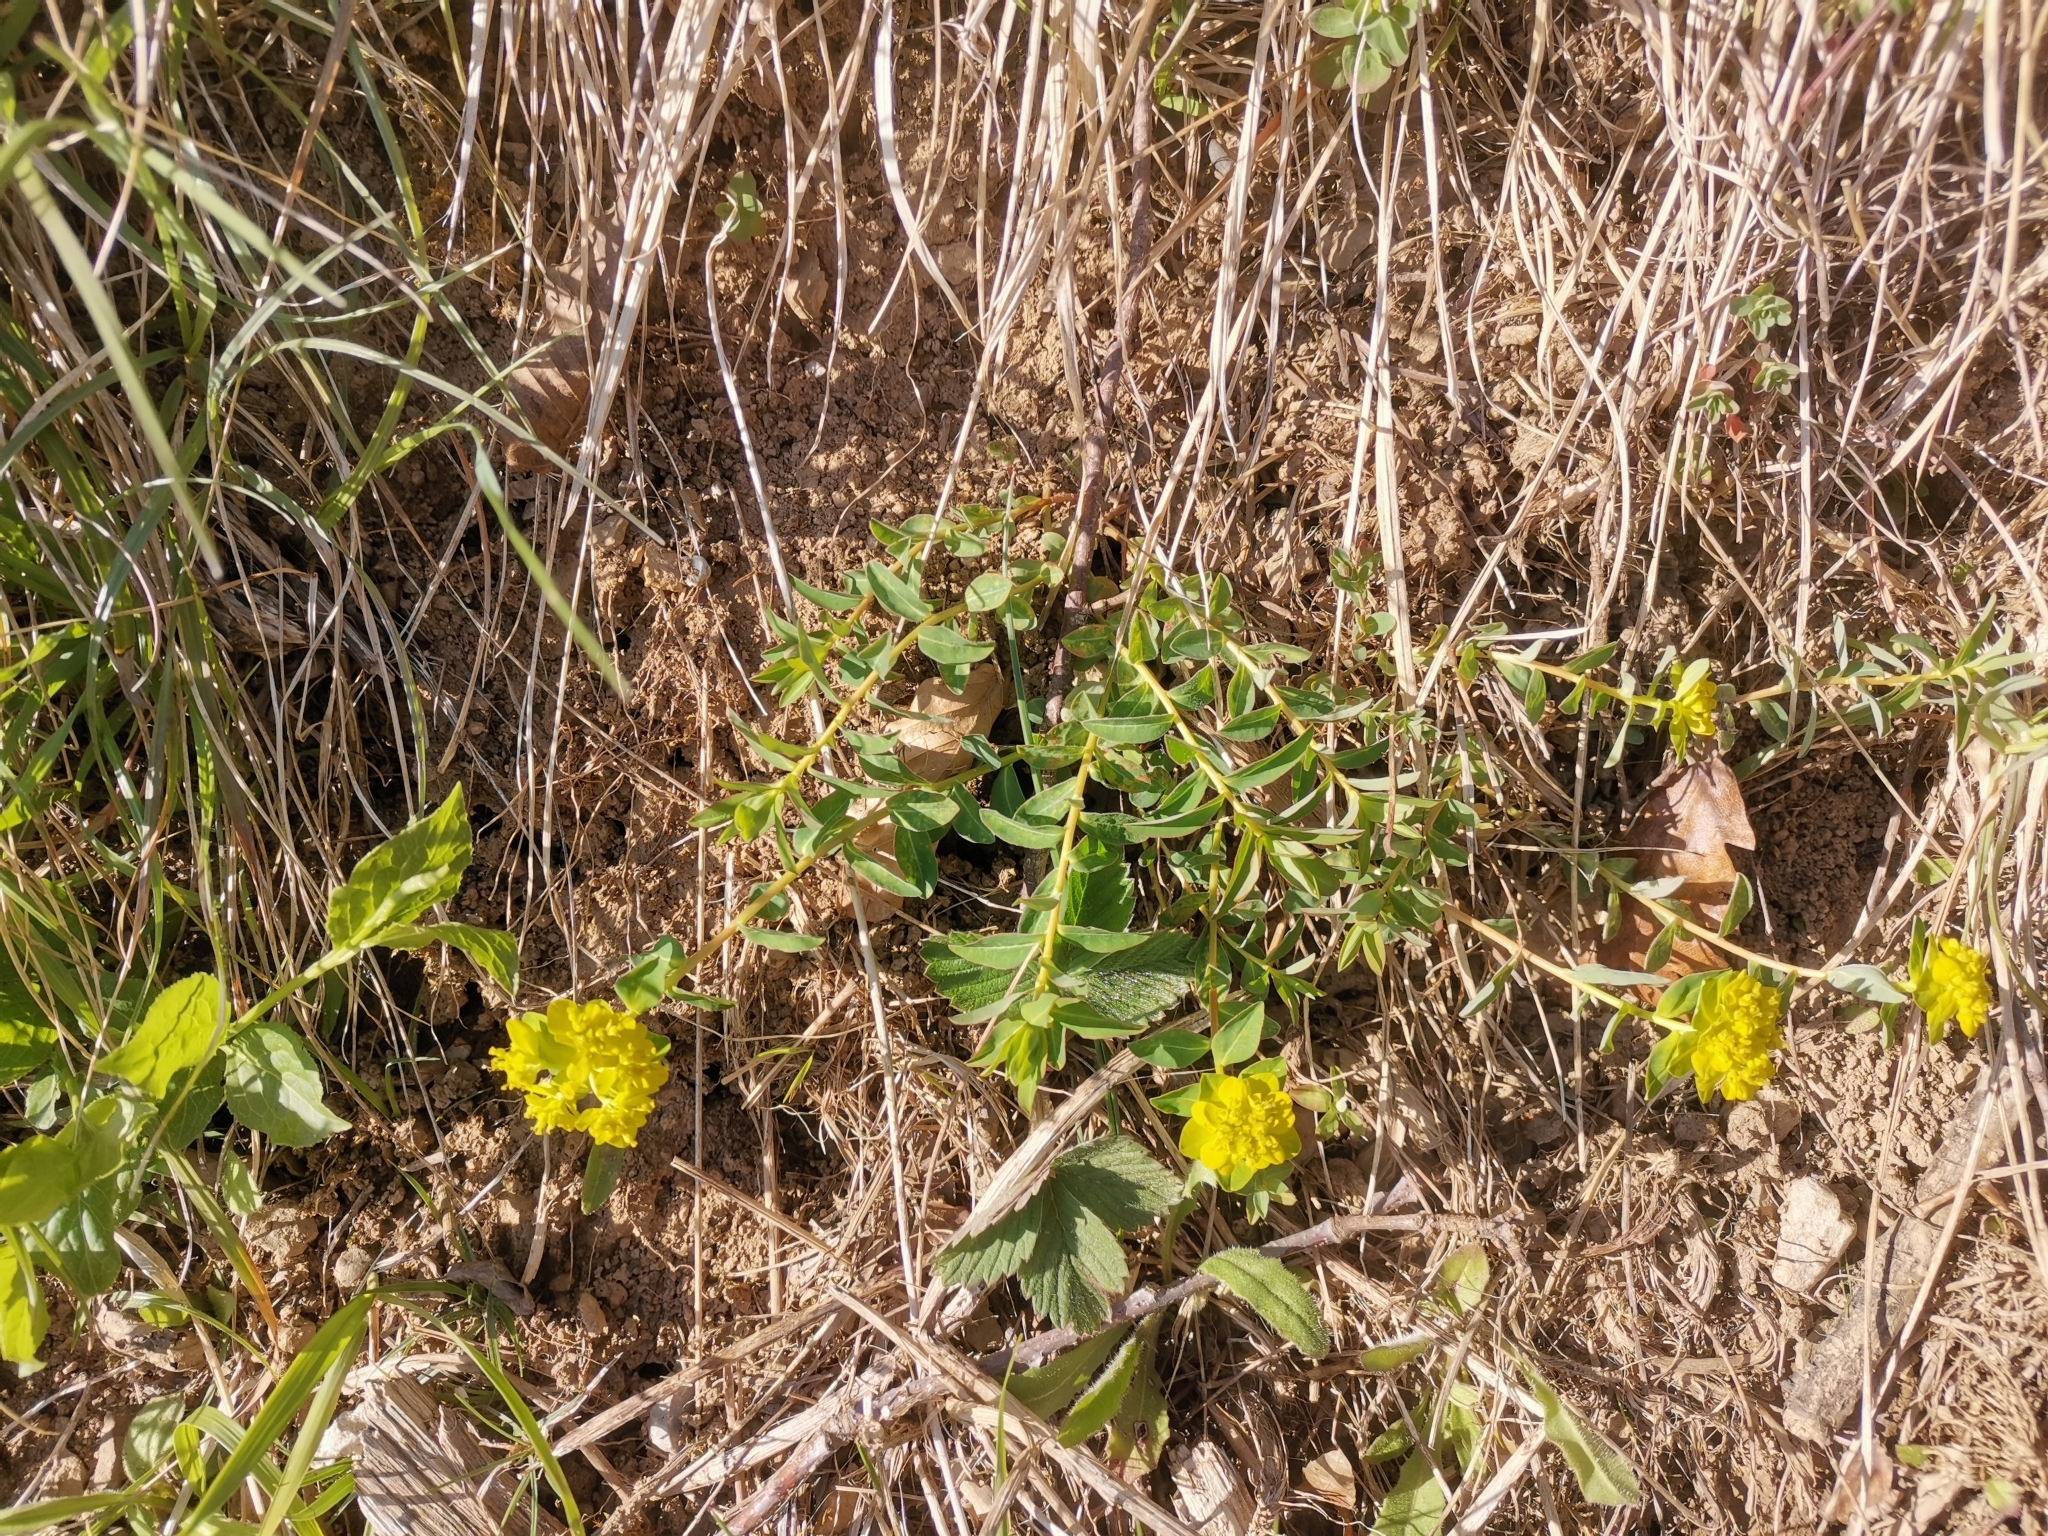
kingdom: Plantae
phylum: Tracheophyta
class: Magnoliopsida
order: Malpighiales
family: Euphorbiaceae
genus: Euphorbia
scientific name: Euphorbia verrucosa
